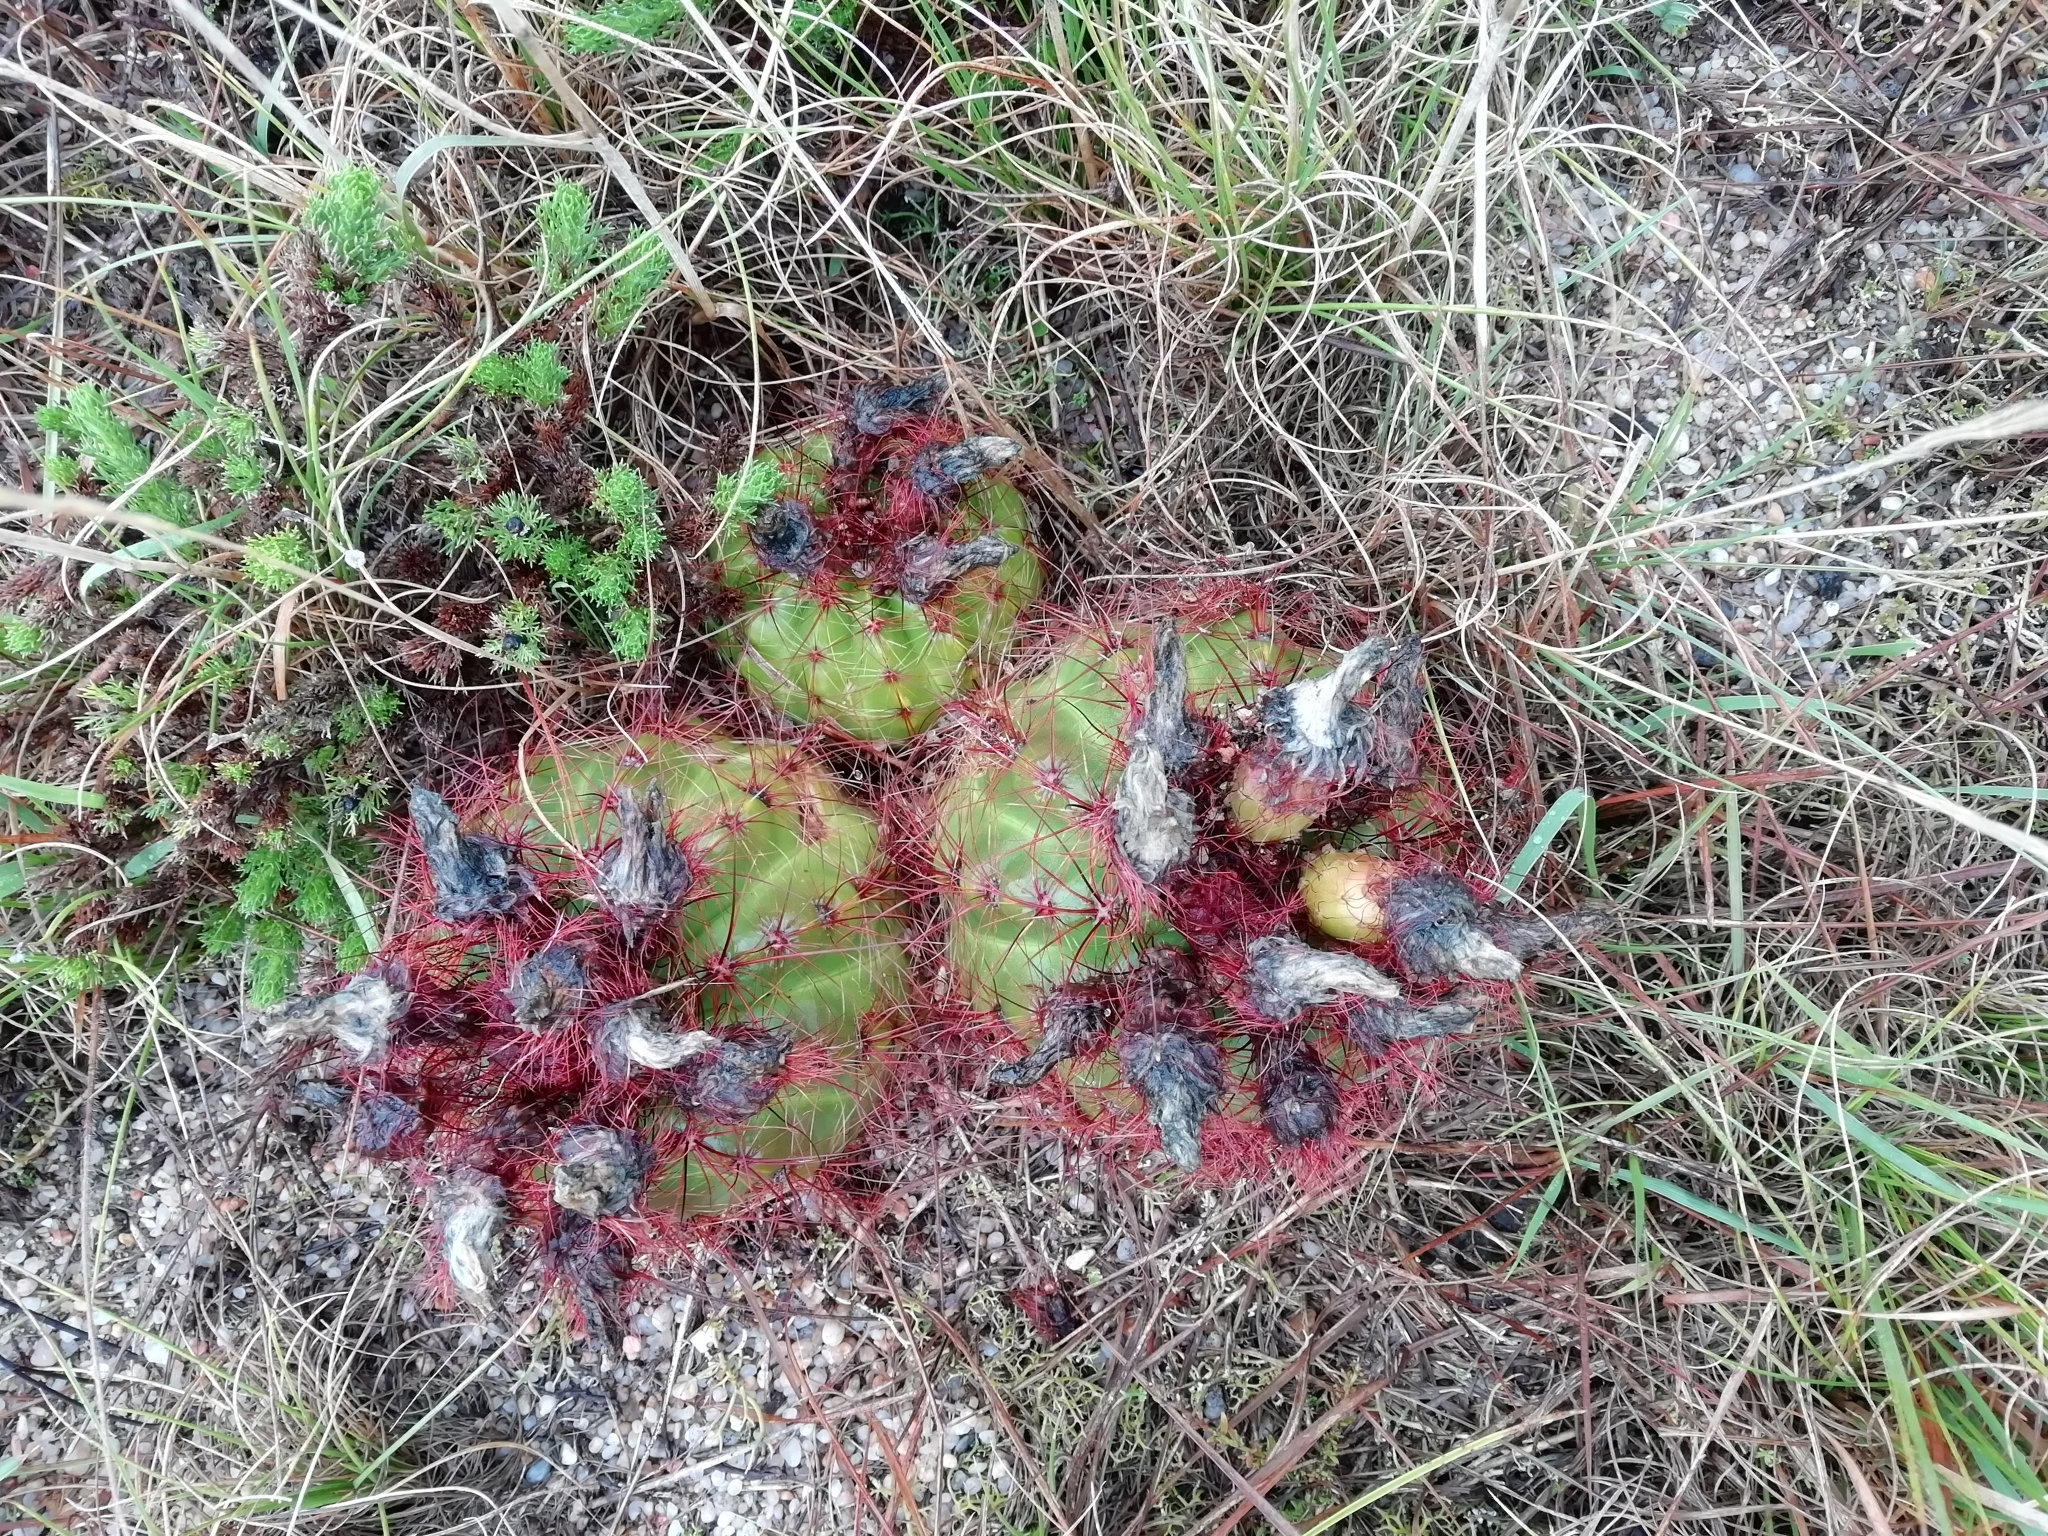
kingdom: Plantae
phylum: Tracheophyta
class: Magnoliopsida
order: Caryophyllales
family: Cactaceae
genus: Parodia
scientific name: Parodia ottonis
